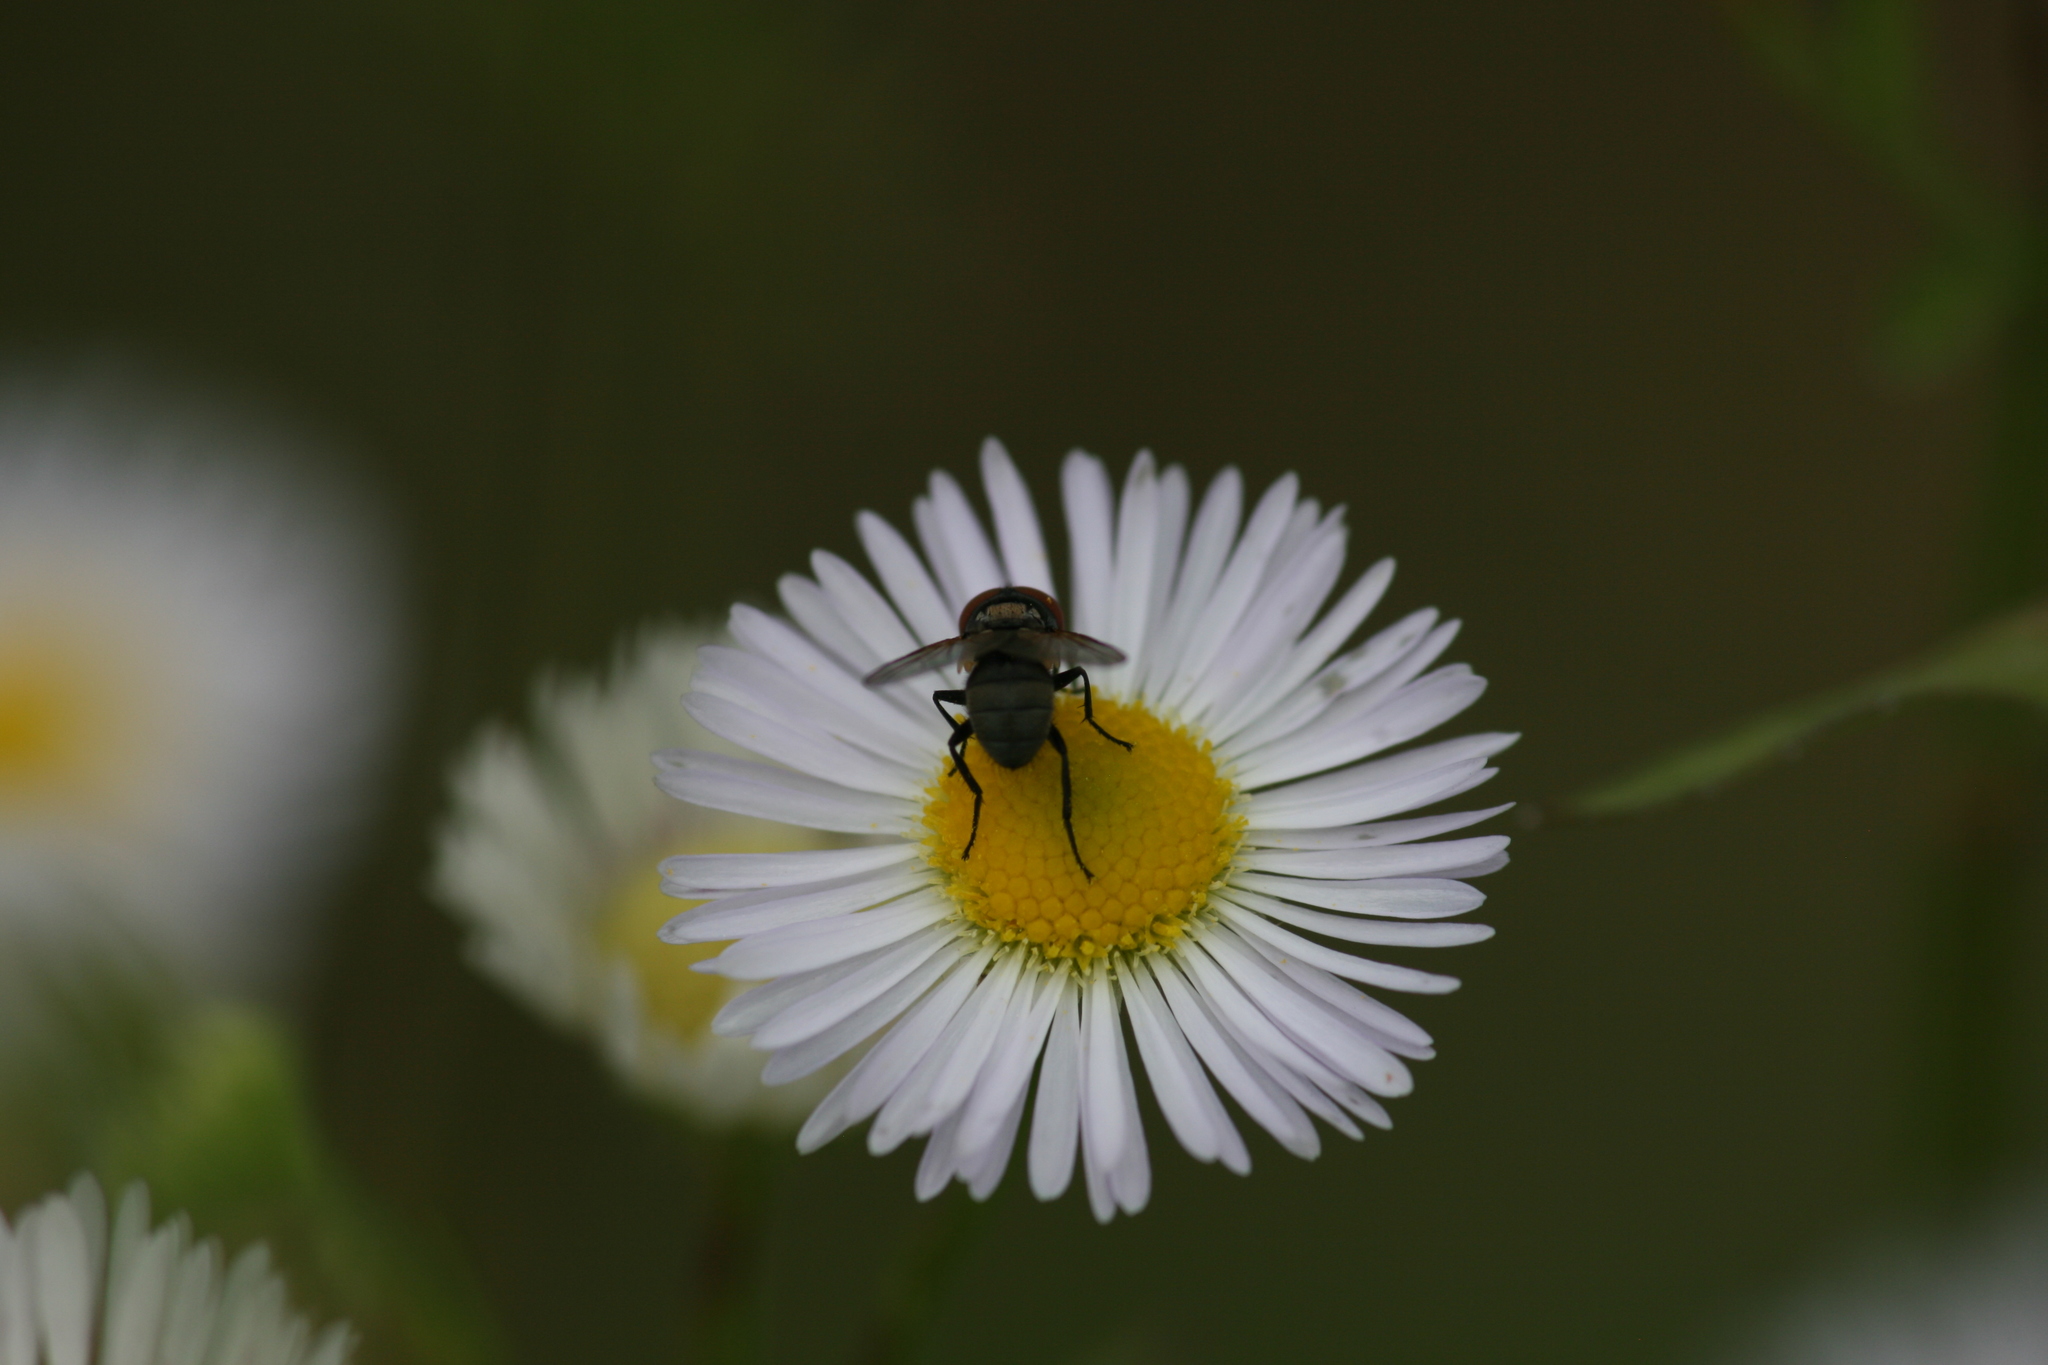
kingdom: Animalia
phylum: Arthropoda
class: Insecta
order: Diptera
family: Tachinidae
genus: Phasia
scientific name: Phasia obesa
